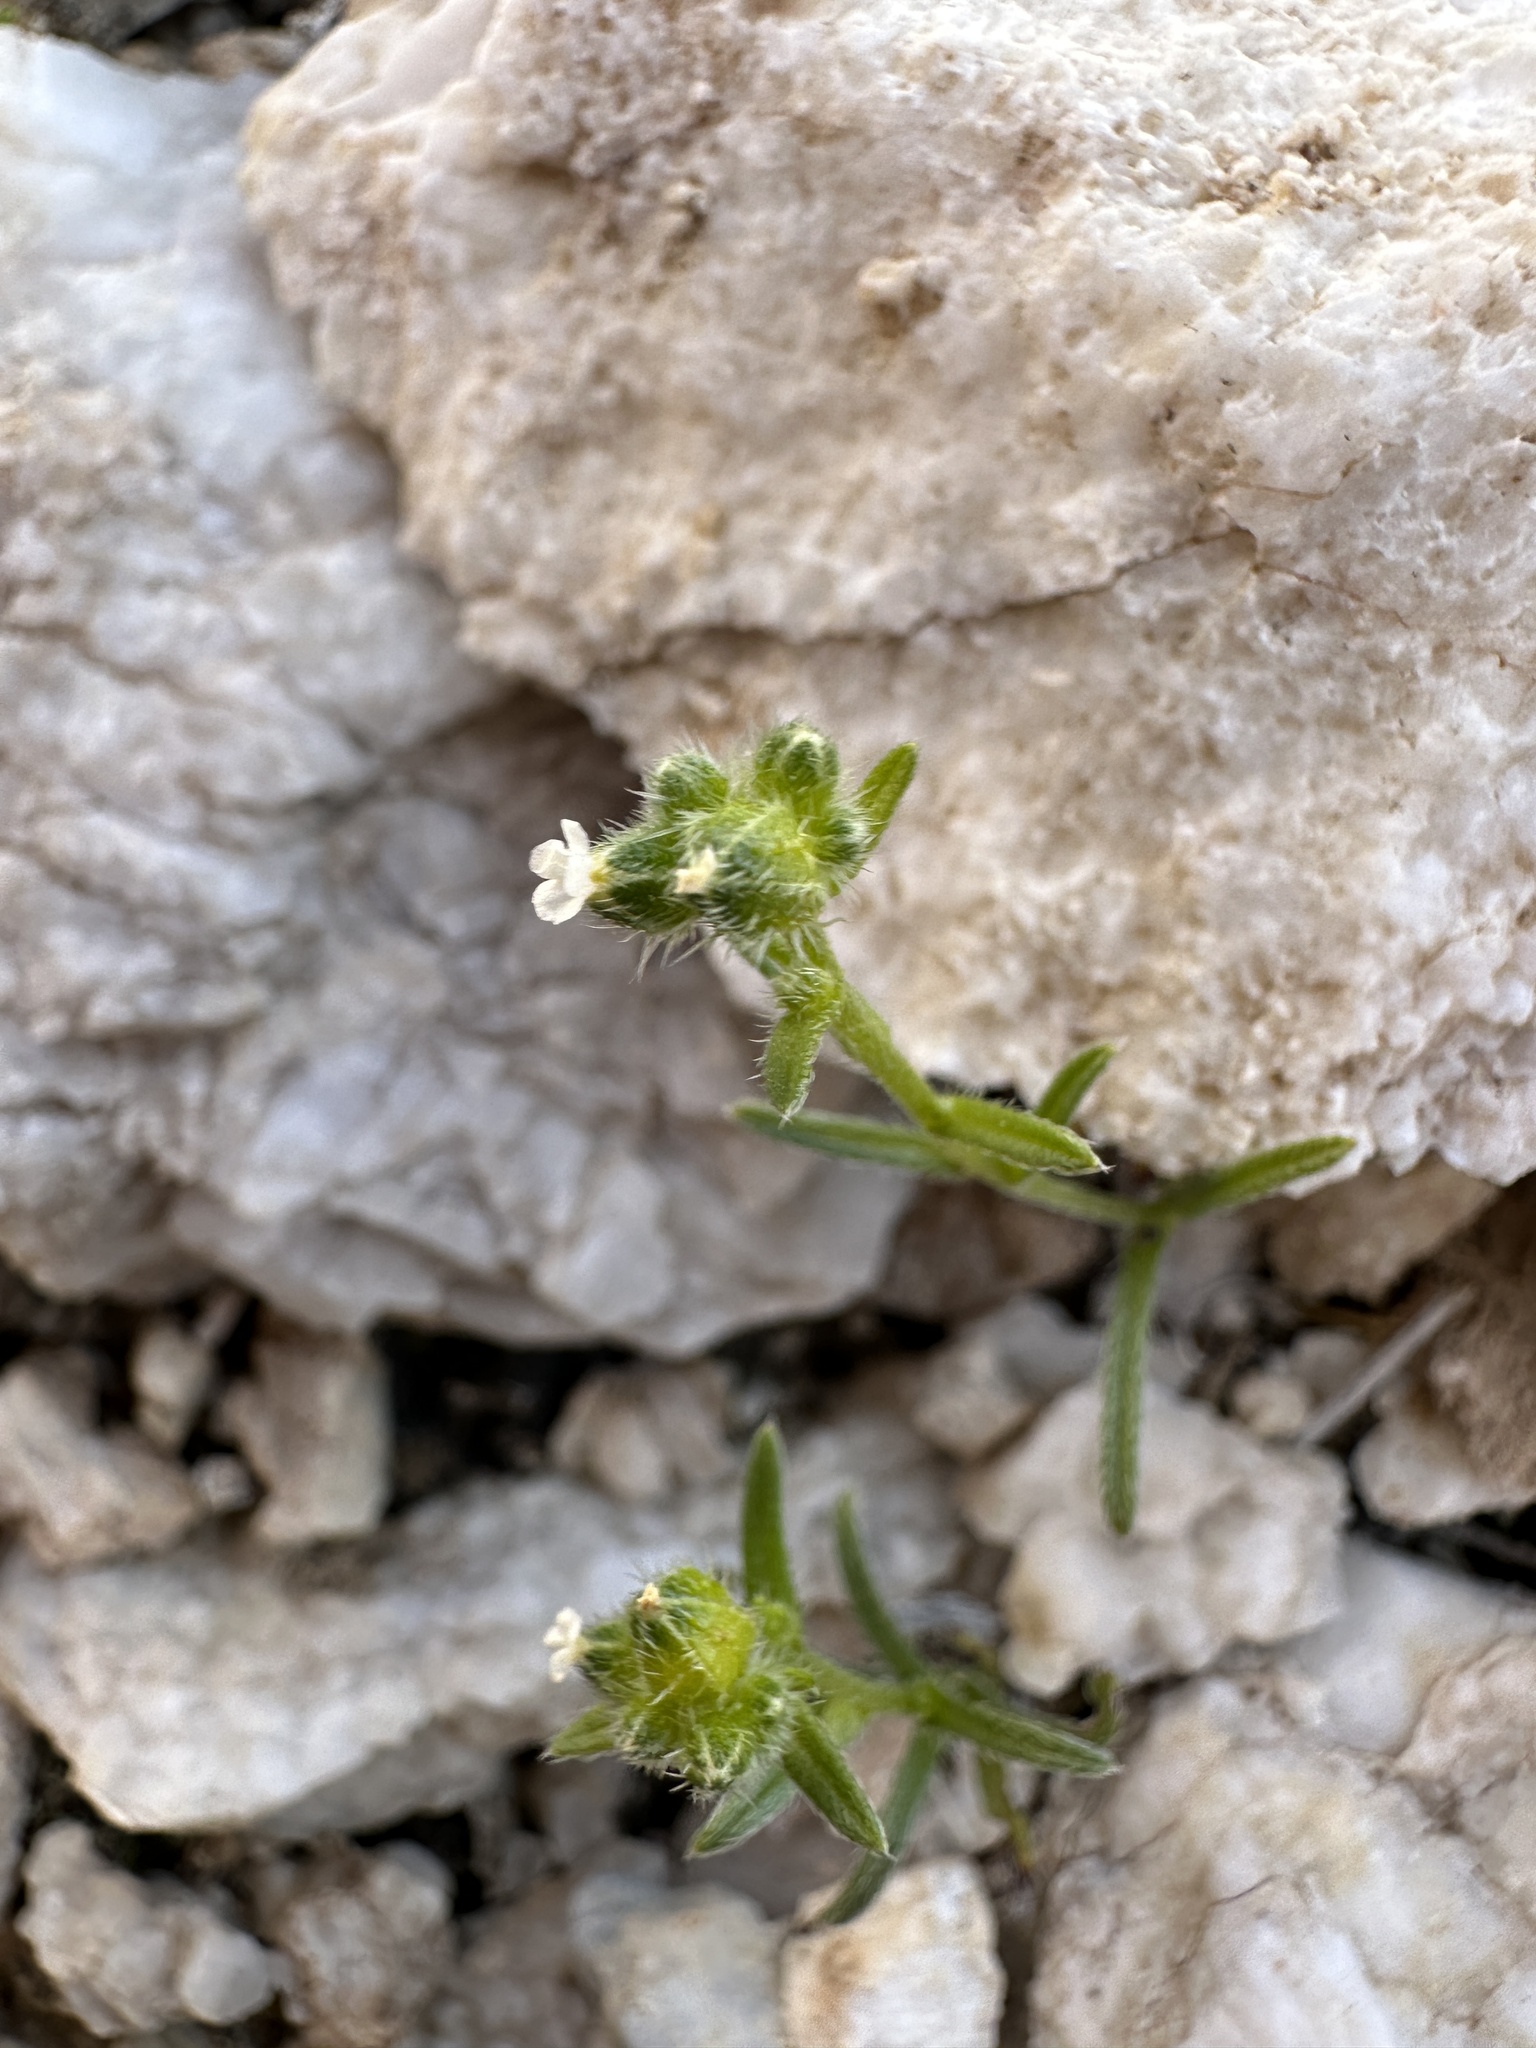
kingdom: Plantae
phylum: Tracheophyta
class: Magnoliopsida
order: Boraginales
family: Boraginaceae
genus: Cryptantha
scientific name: Cryptantha pterocarya
